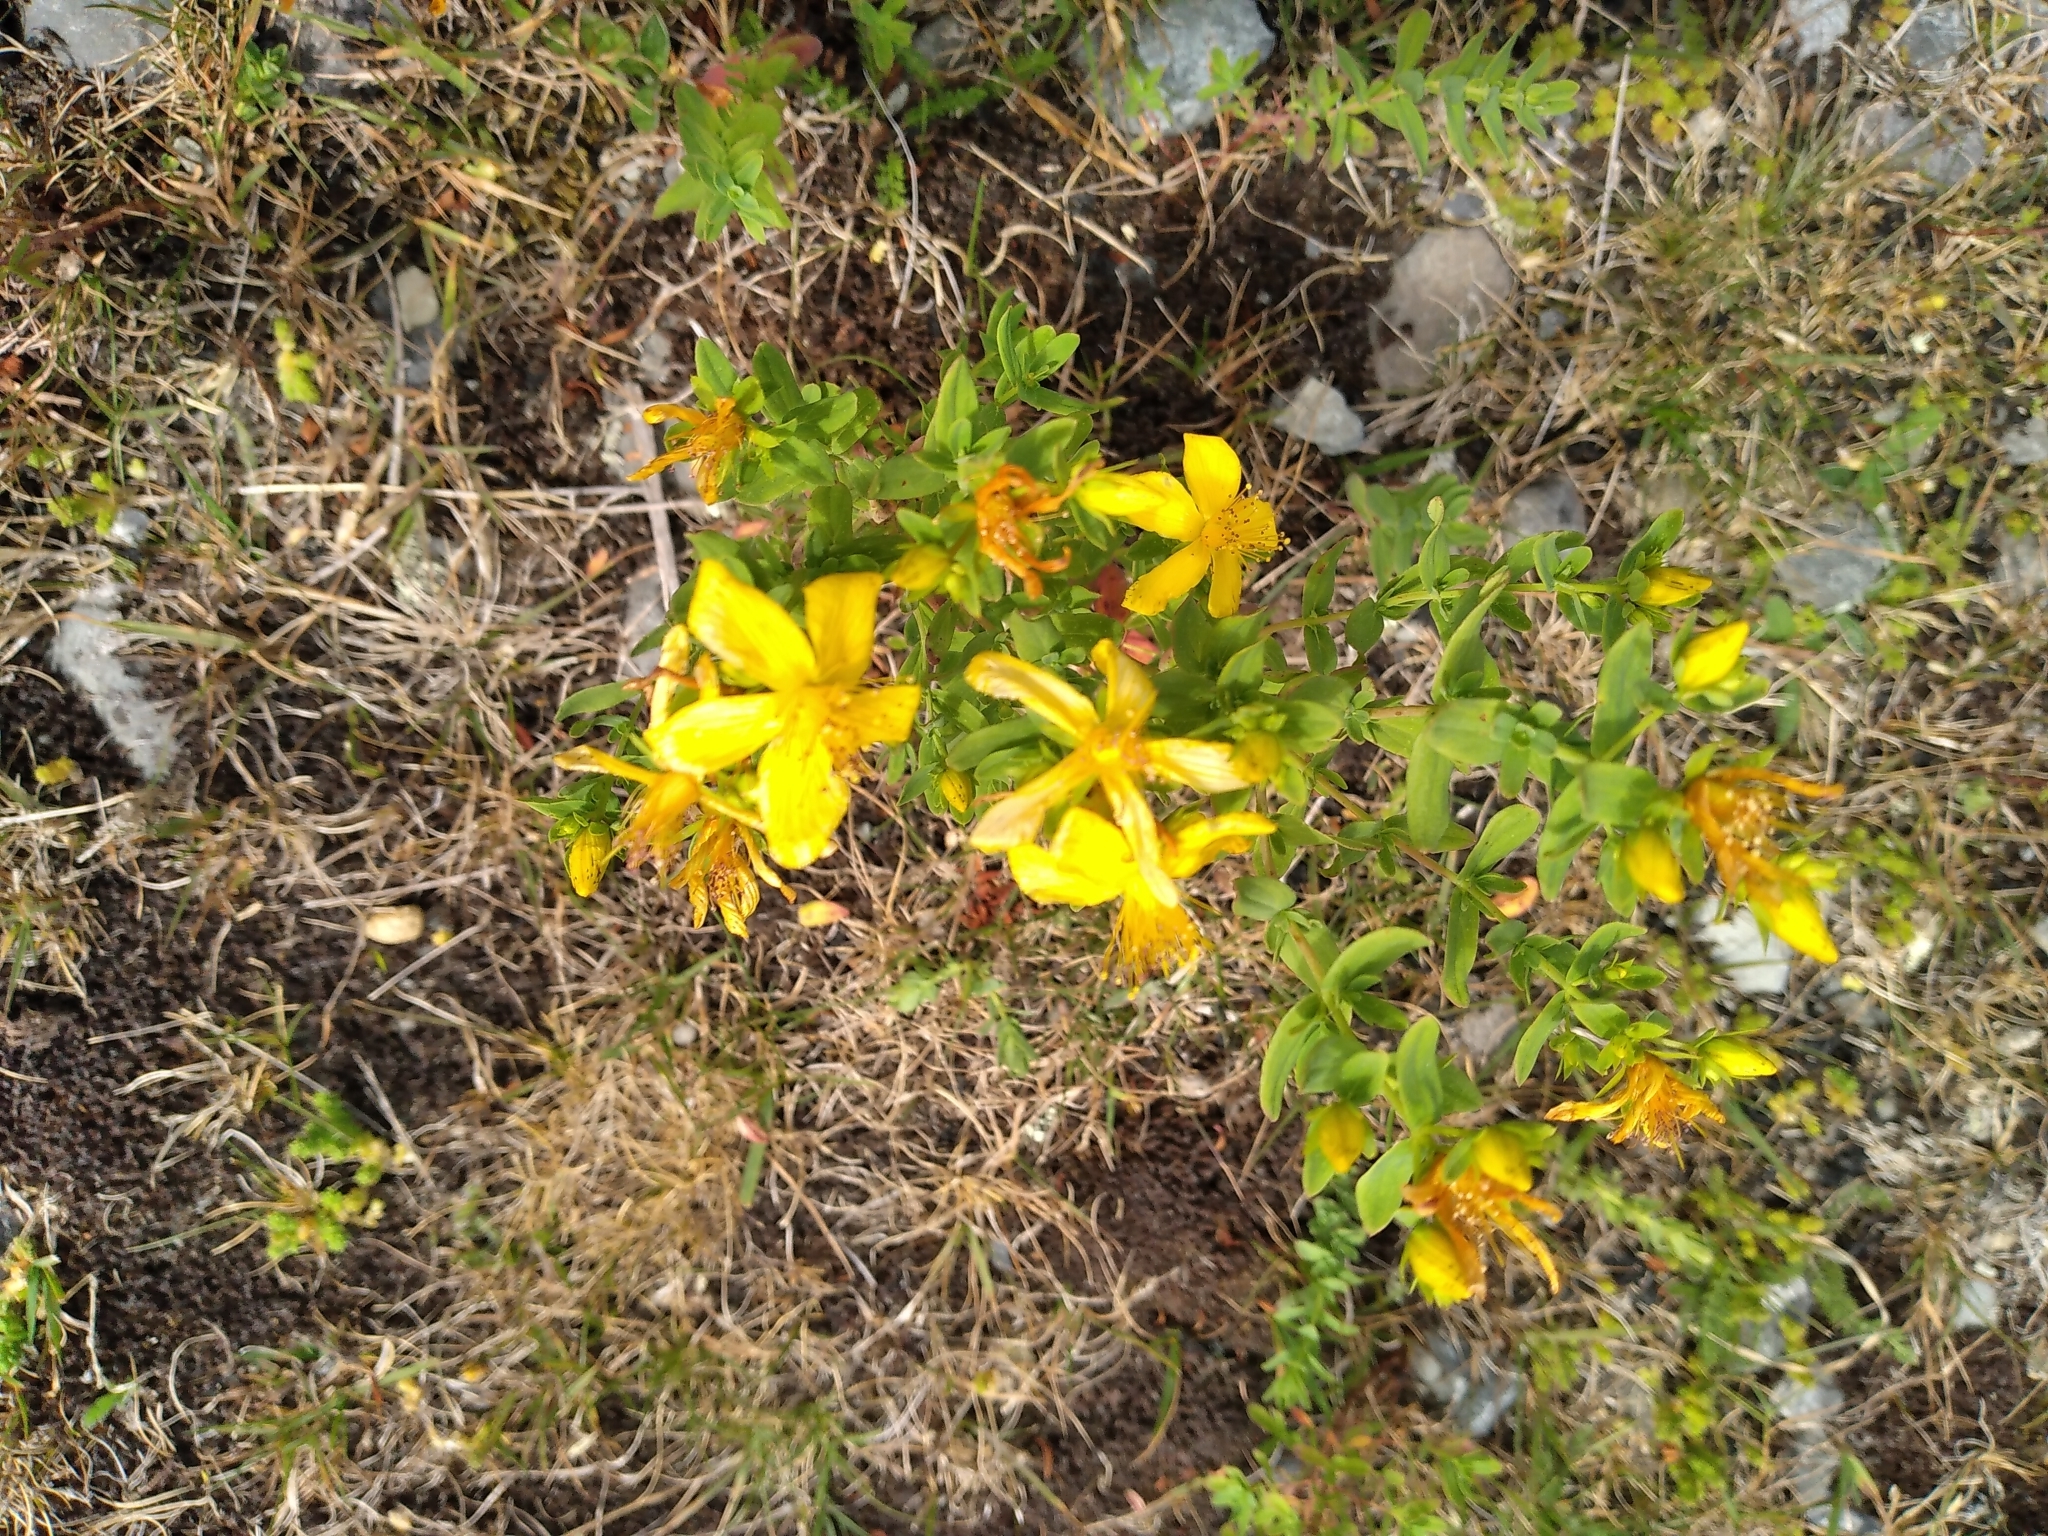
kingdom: Plantae
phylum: Tracheophyta
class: Magnoliopsida
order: Malpighiales
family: Hypericaceae
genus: Hypericum
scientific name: Hypericum perforatum
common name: Common st. johnswort
